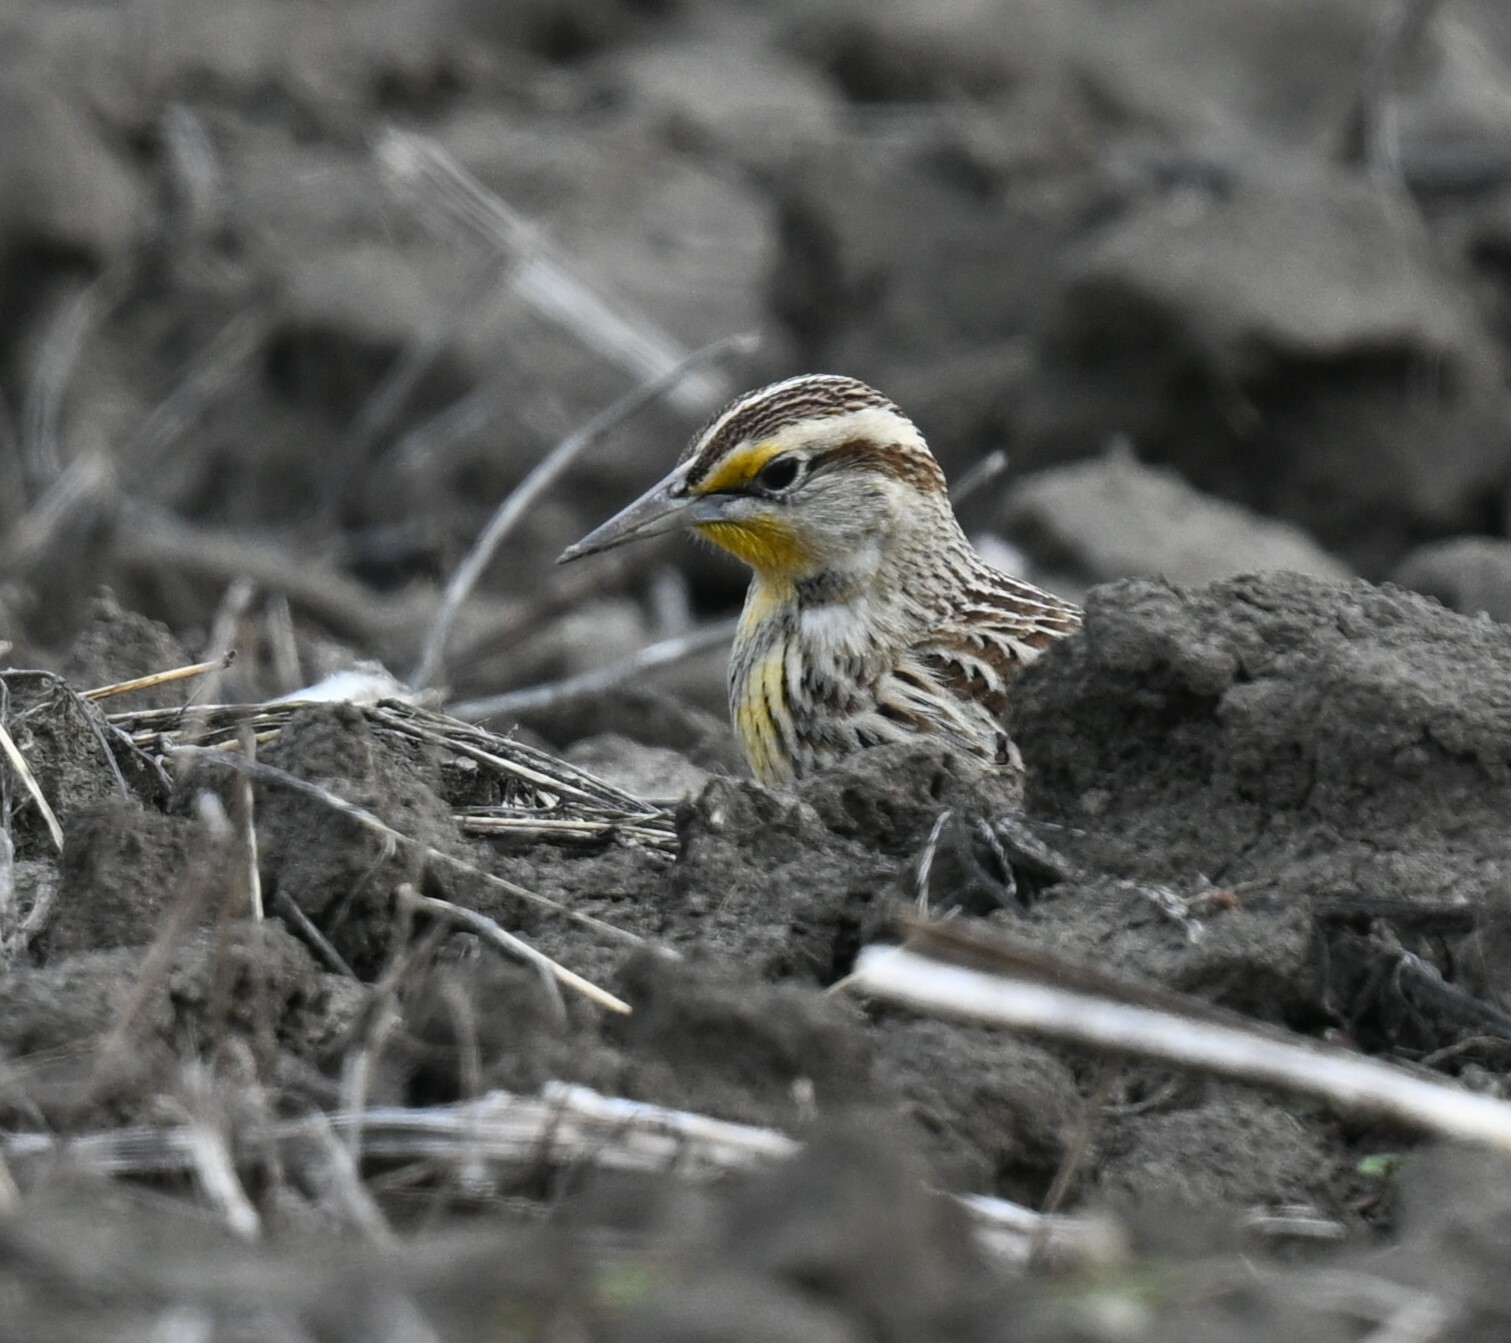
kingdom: Animalia
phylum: Chordata
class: Aves
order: Passeriformes
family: Icteridae
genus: Sturnella
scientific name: Sturnella magna
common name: Eastern meadowlark
